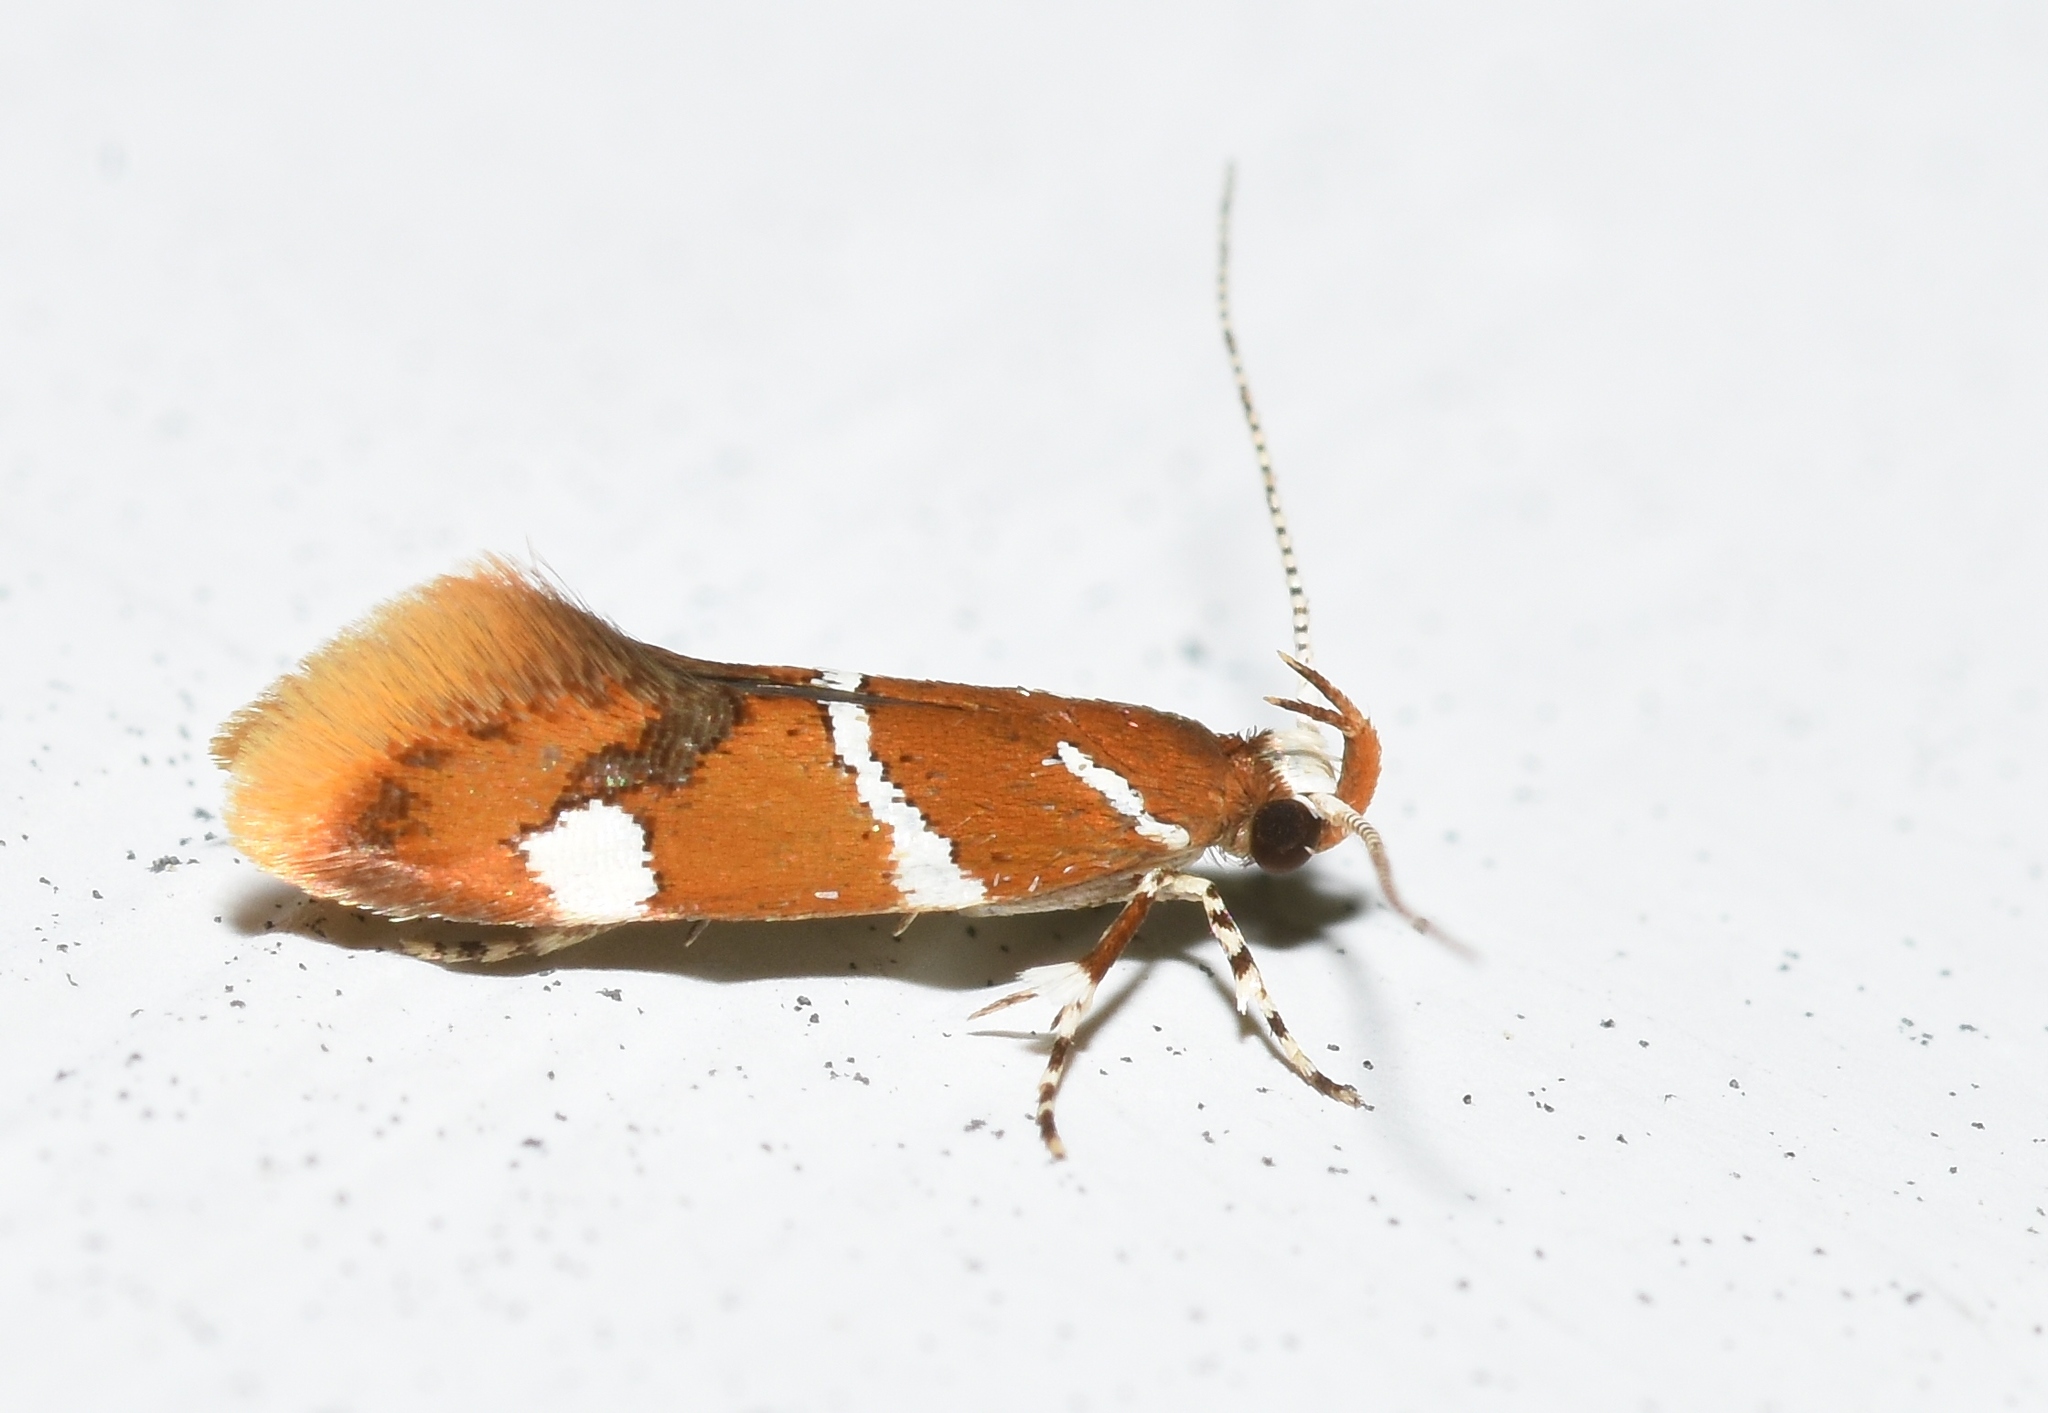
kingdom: Animalia
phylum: Arthropoda
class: Insecta
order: Lepidoptera
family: Oecophoridae
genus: Promalactis
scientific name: Promalactis suzukiella
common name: Moth
